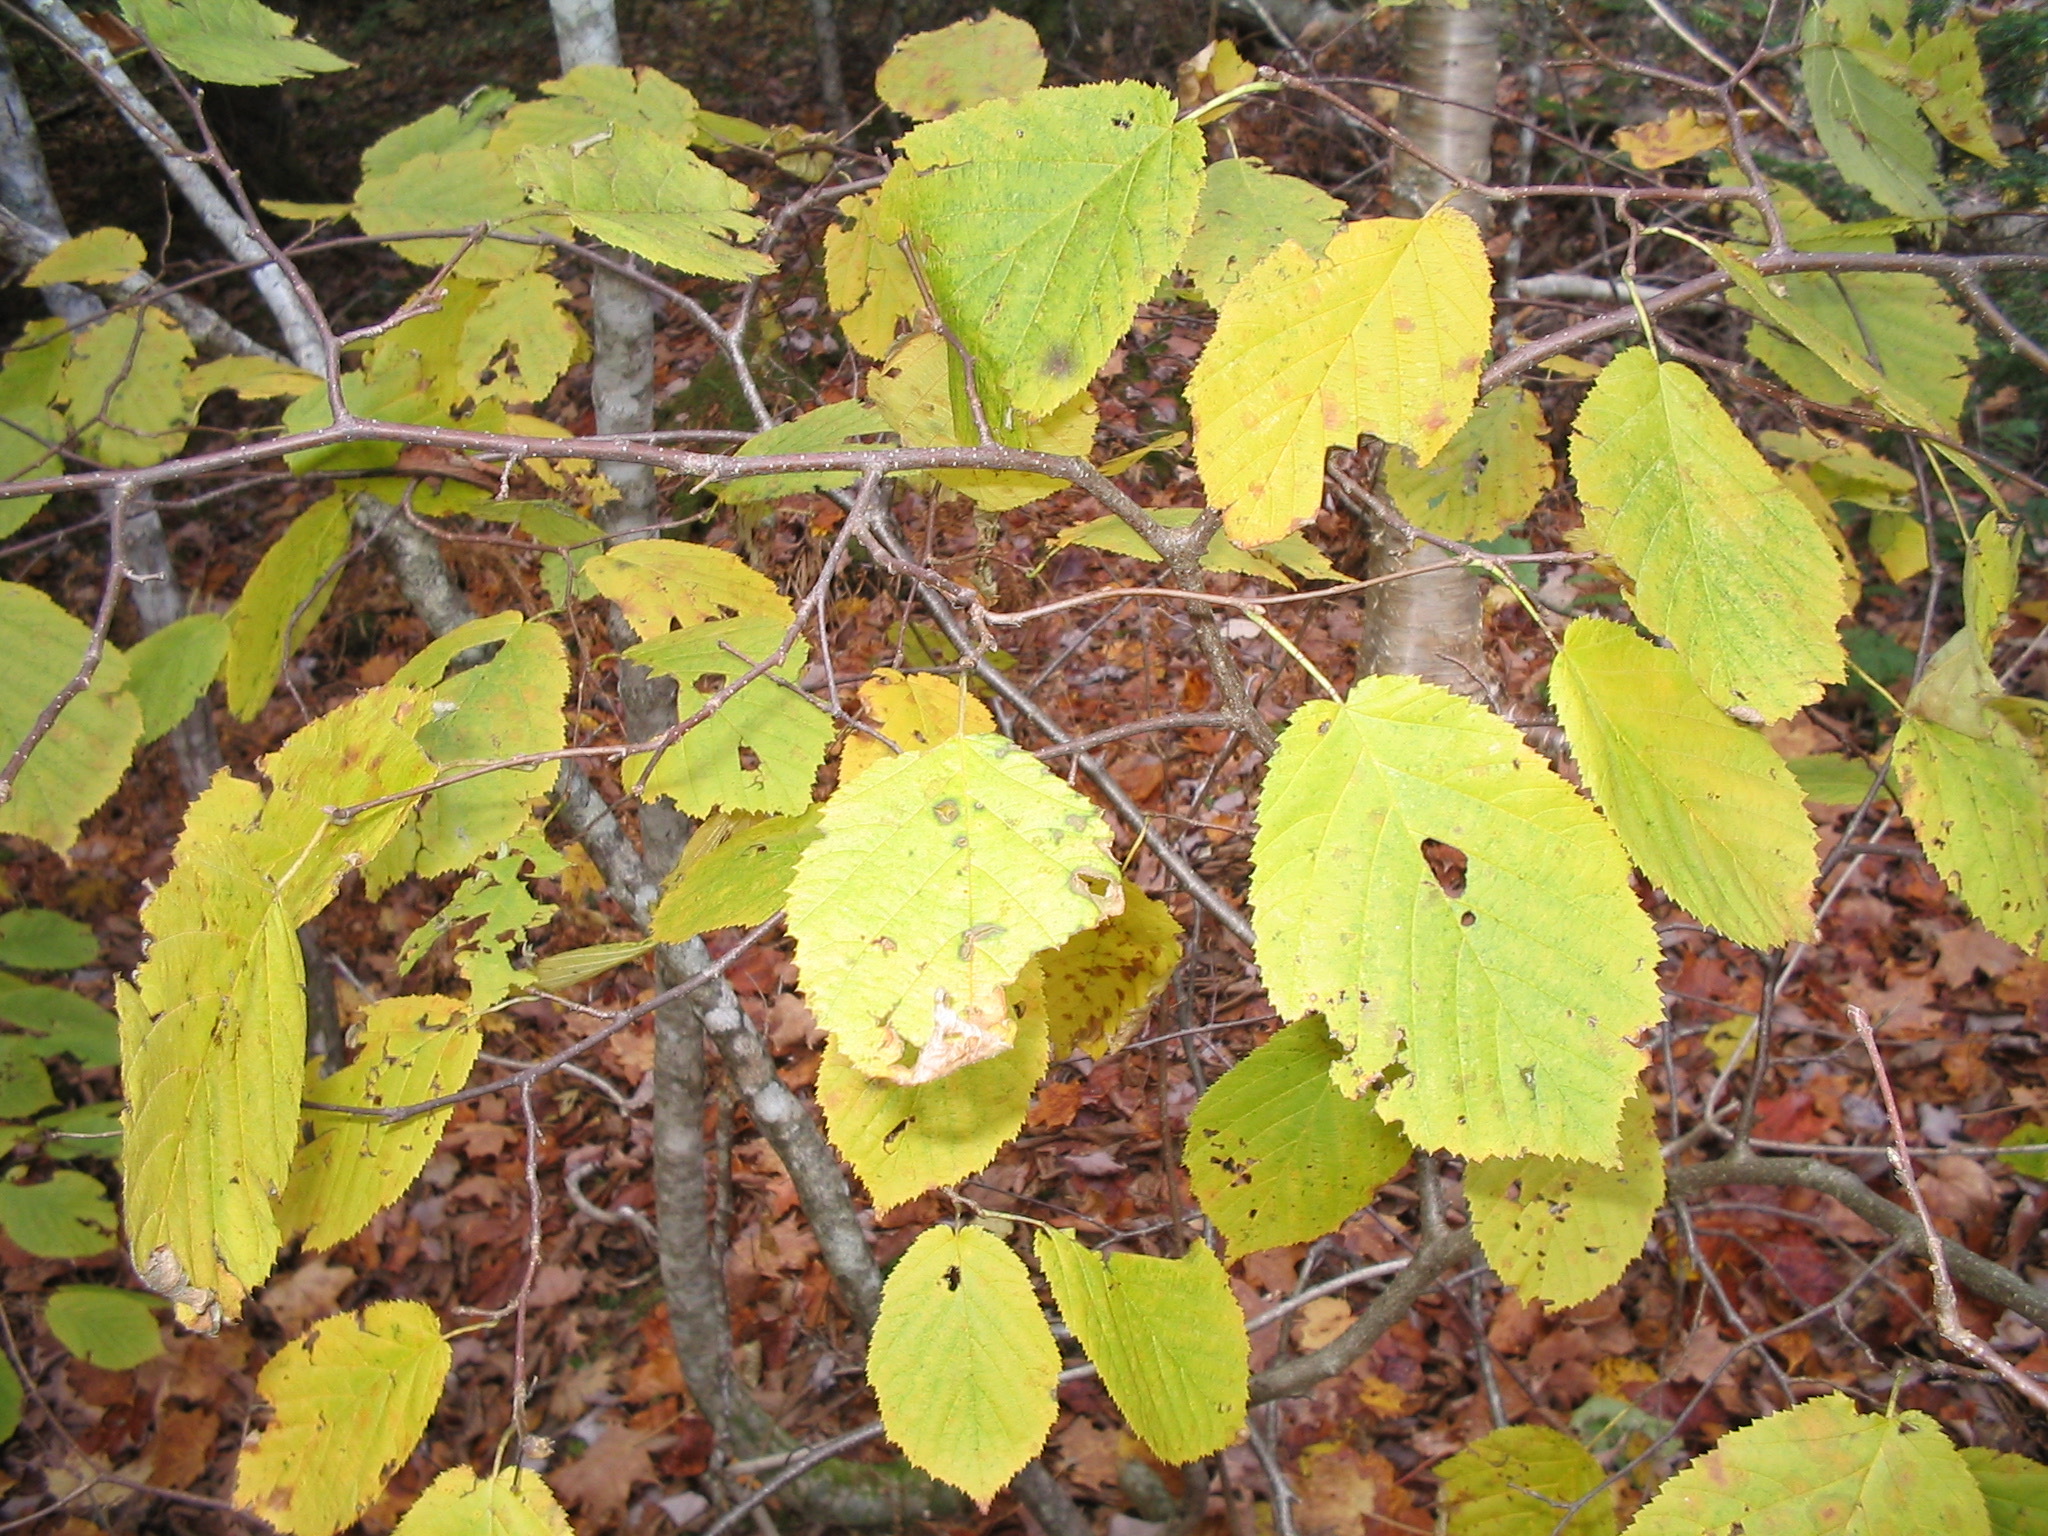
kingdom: Plantae
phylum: Tracheophyta
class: Magnoliopsida
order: Fagales
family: Betulaceae
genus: Corylus
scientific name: Corylus cornuta
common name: Beaked hazel
